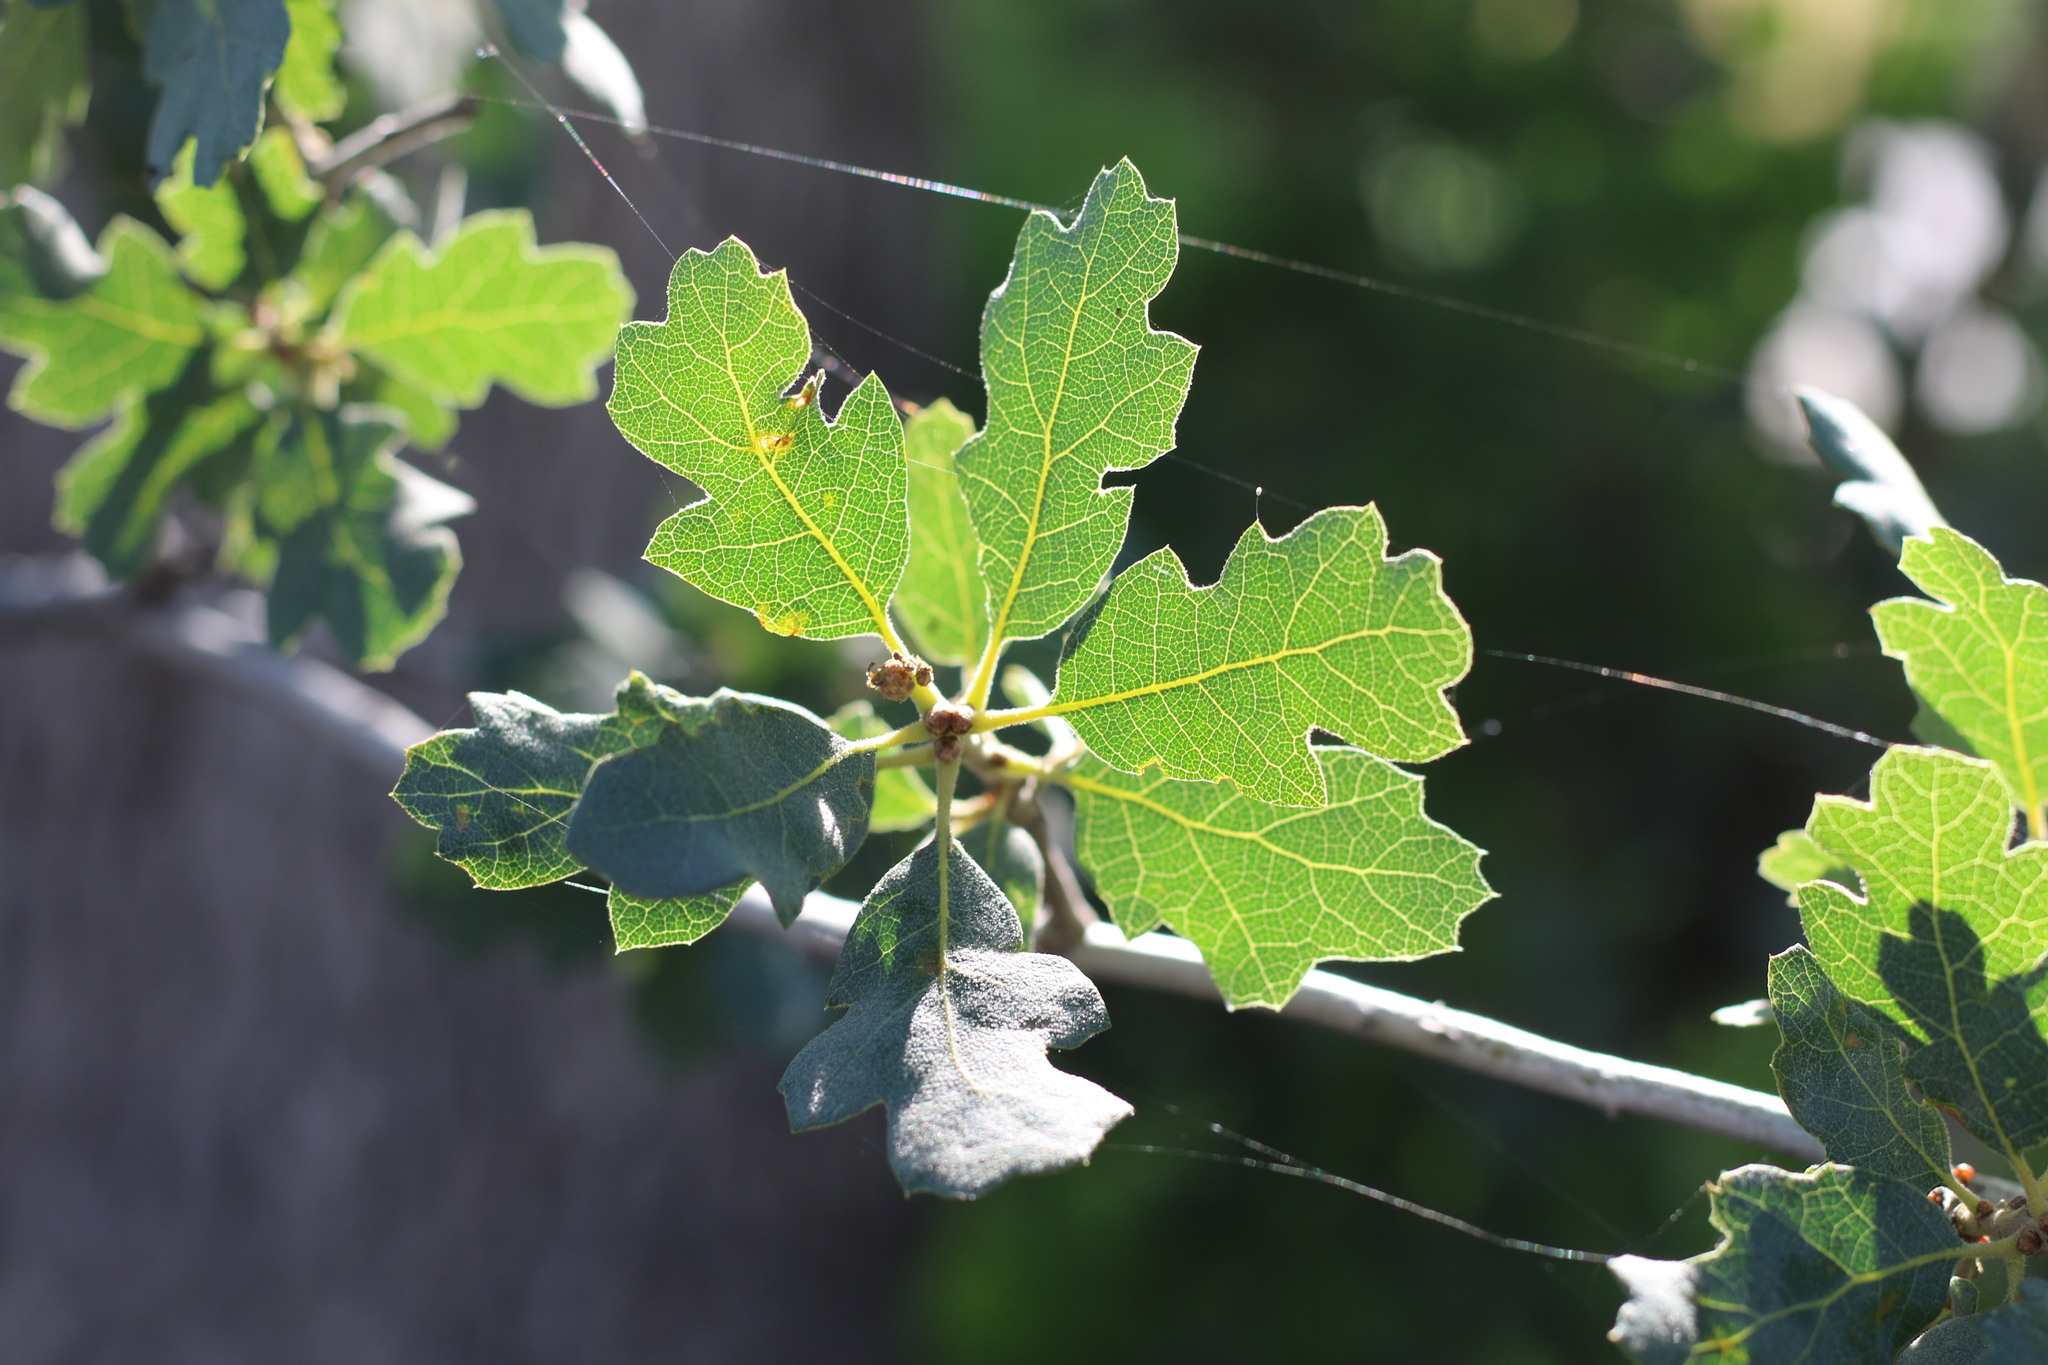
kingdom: Plantae
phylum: Tracheophyta
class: Magnoliopsida
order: Fagales
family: Fagaceae
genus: Quercus
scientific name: Quercus douglasii
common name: Blue oak
